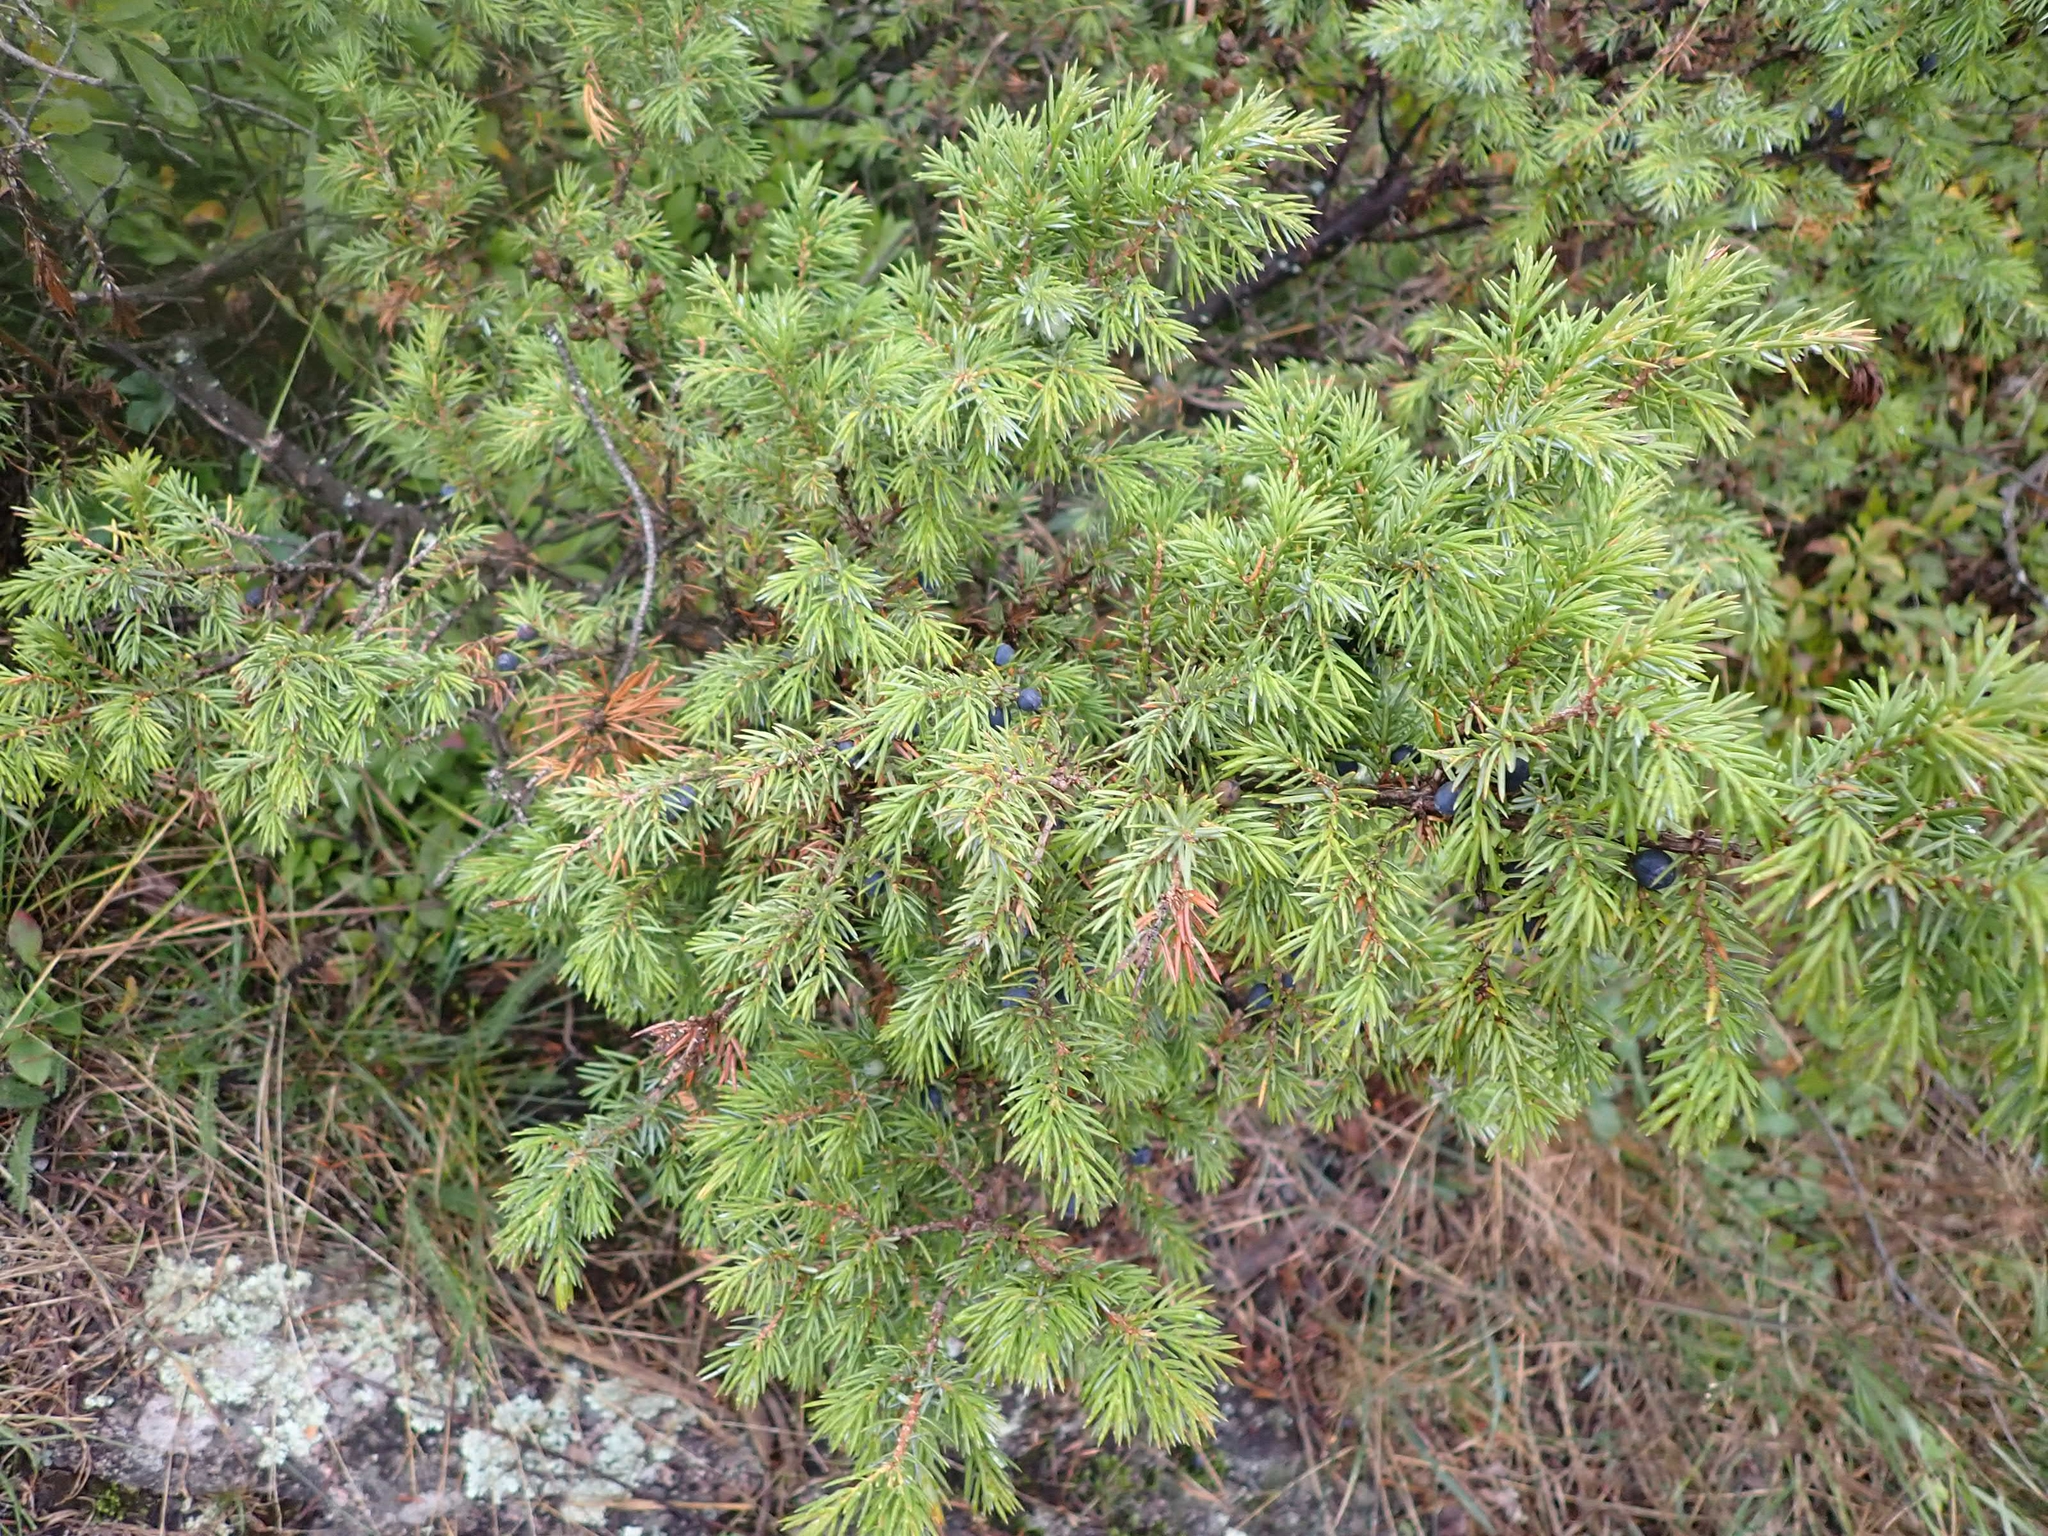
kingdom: Plantae
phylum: Tracheophyta
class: Pinopsida
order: Pinales
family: Cupressaceae
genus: Juniperus
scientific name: Juniperus communis
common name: Common juniper
